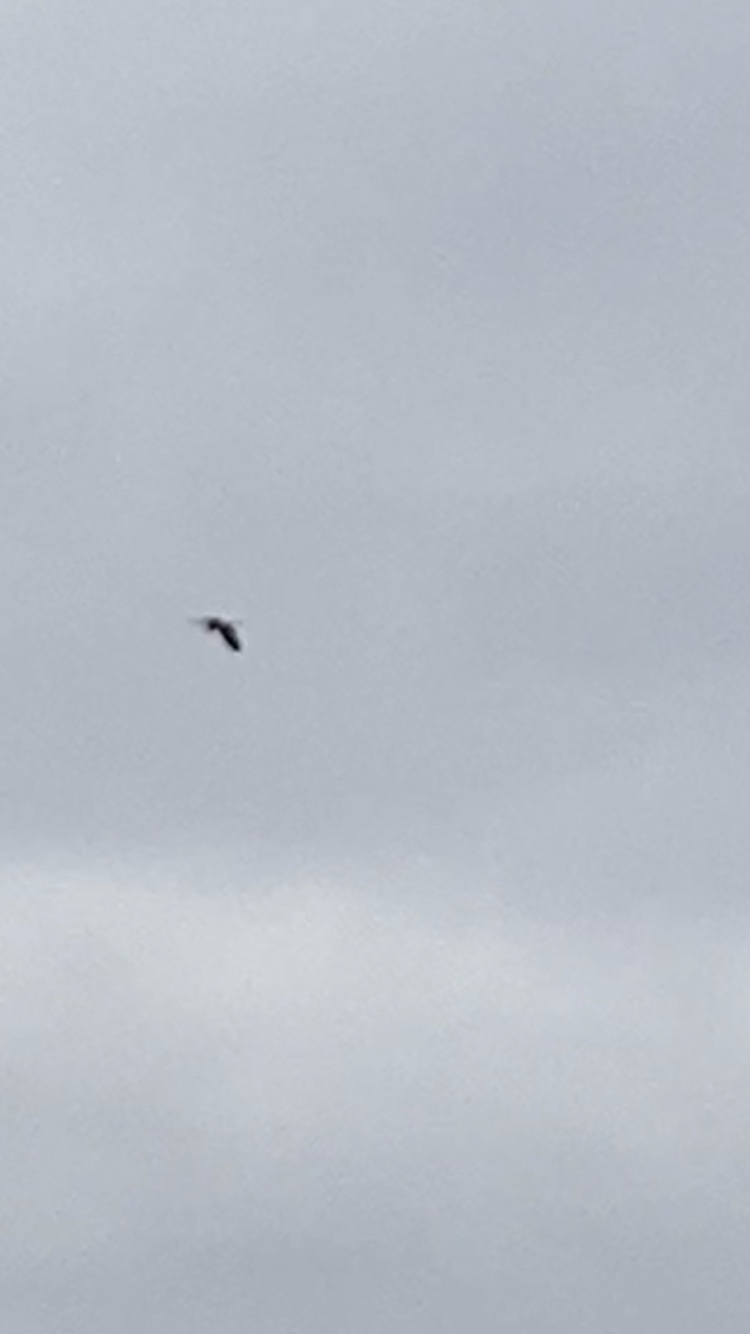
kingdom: Animalia
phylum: Chordata
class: Aves
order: Pelecaniformes
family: Ardeidae
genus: Ardea
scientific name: Ardea cinerea
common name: Grey heron
